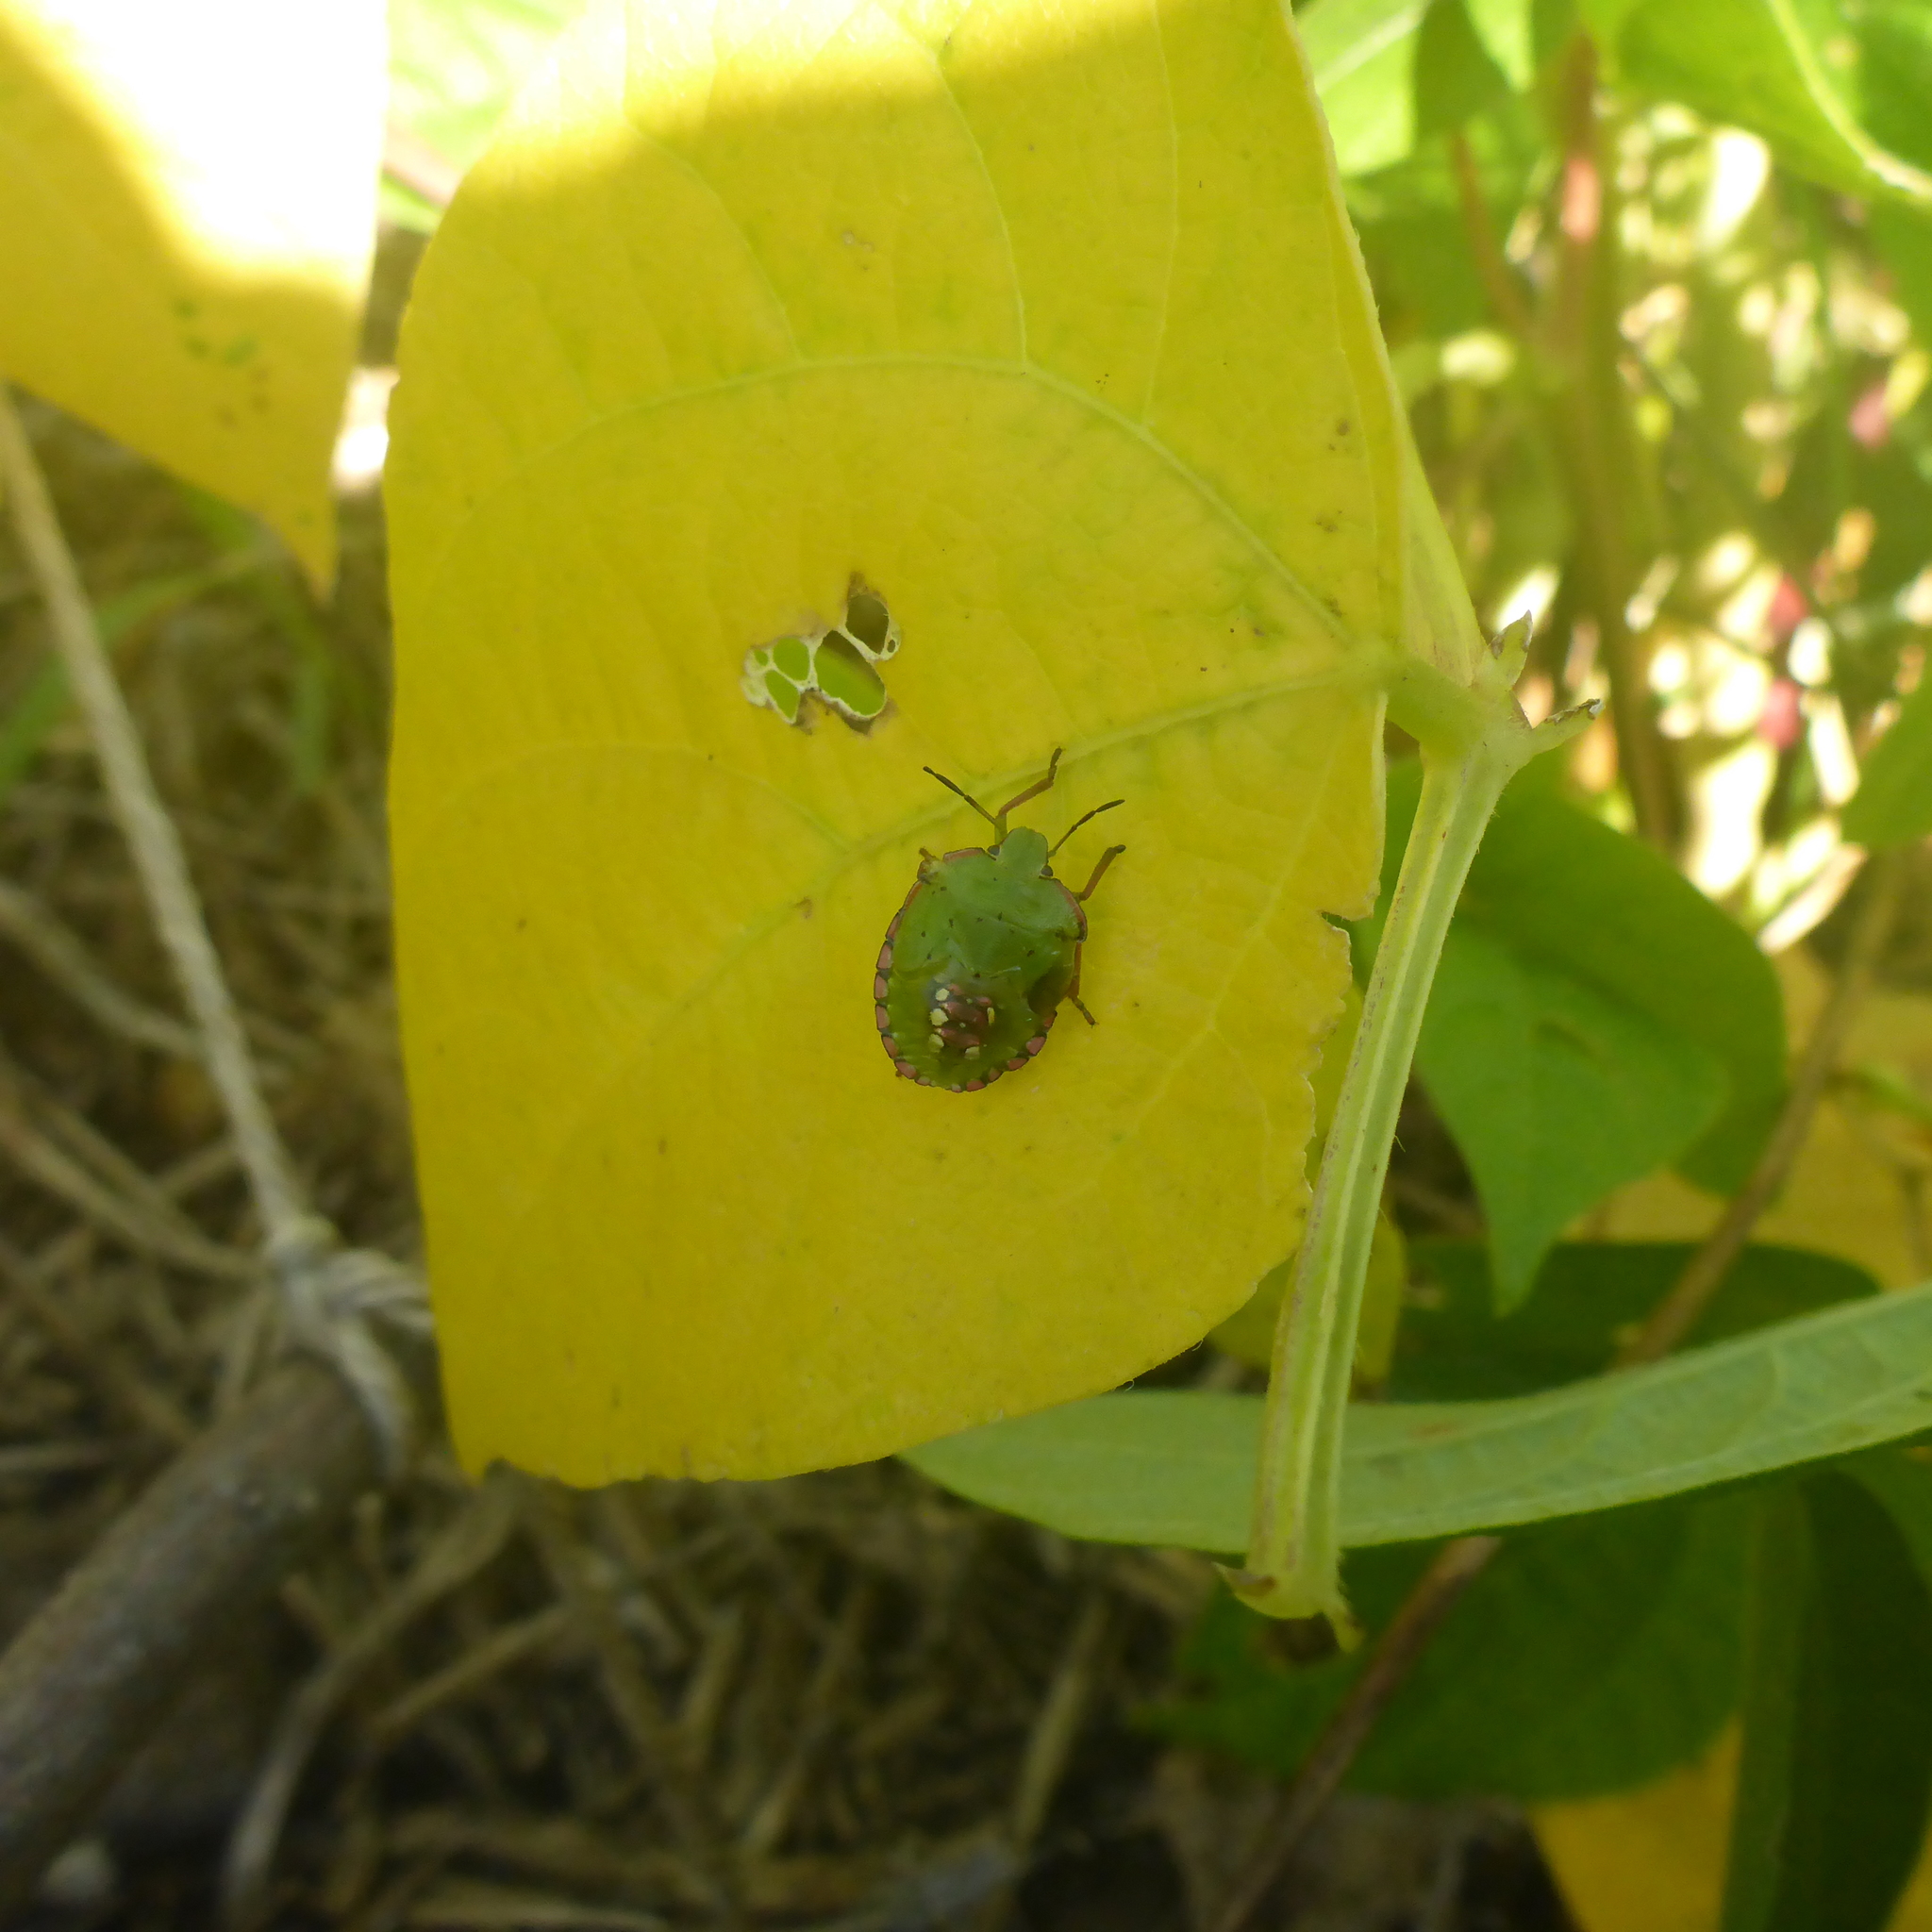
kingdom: Animalia
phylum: Arthropoda
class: Insecta
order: Hemiptera
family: Pentatomidae
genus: Nezara
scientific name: Nezara viridula
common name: Southern green stink bug
